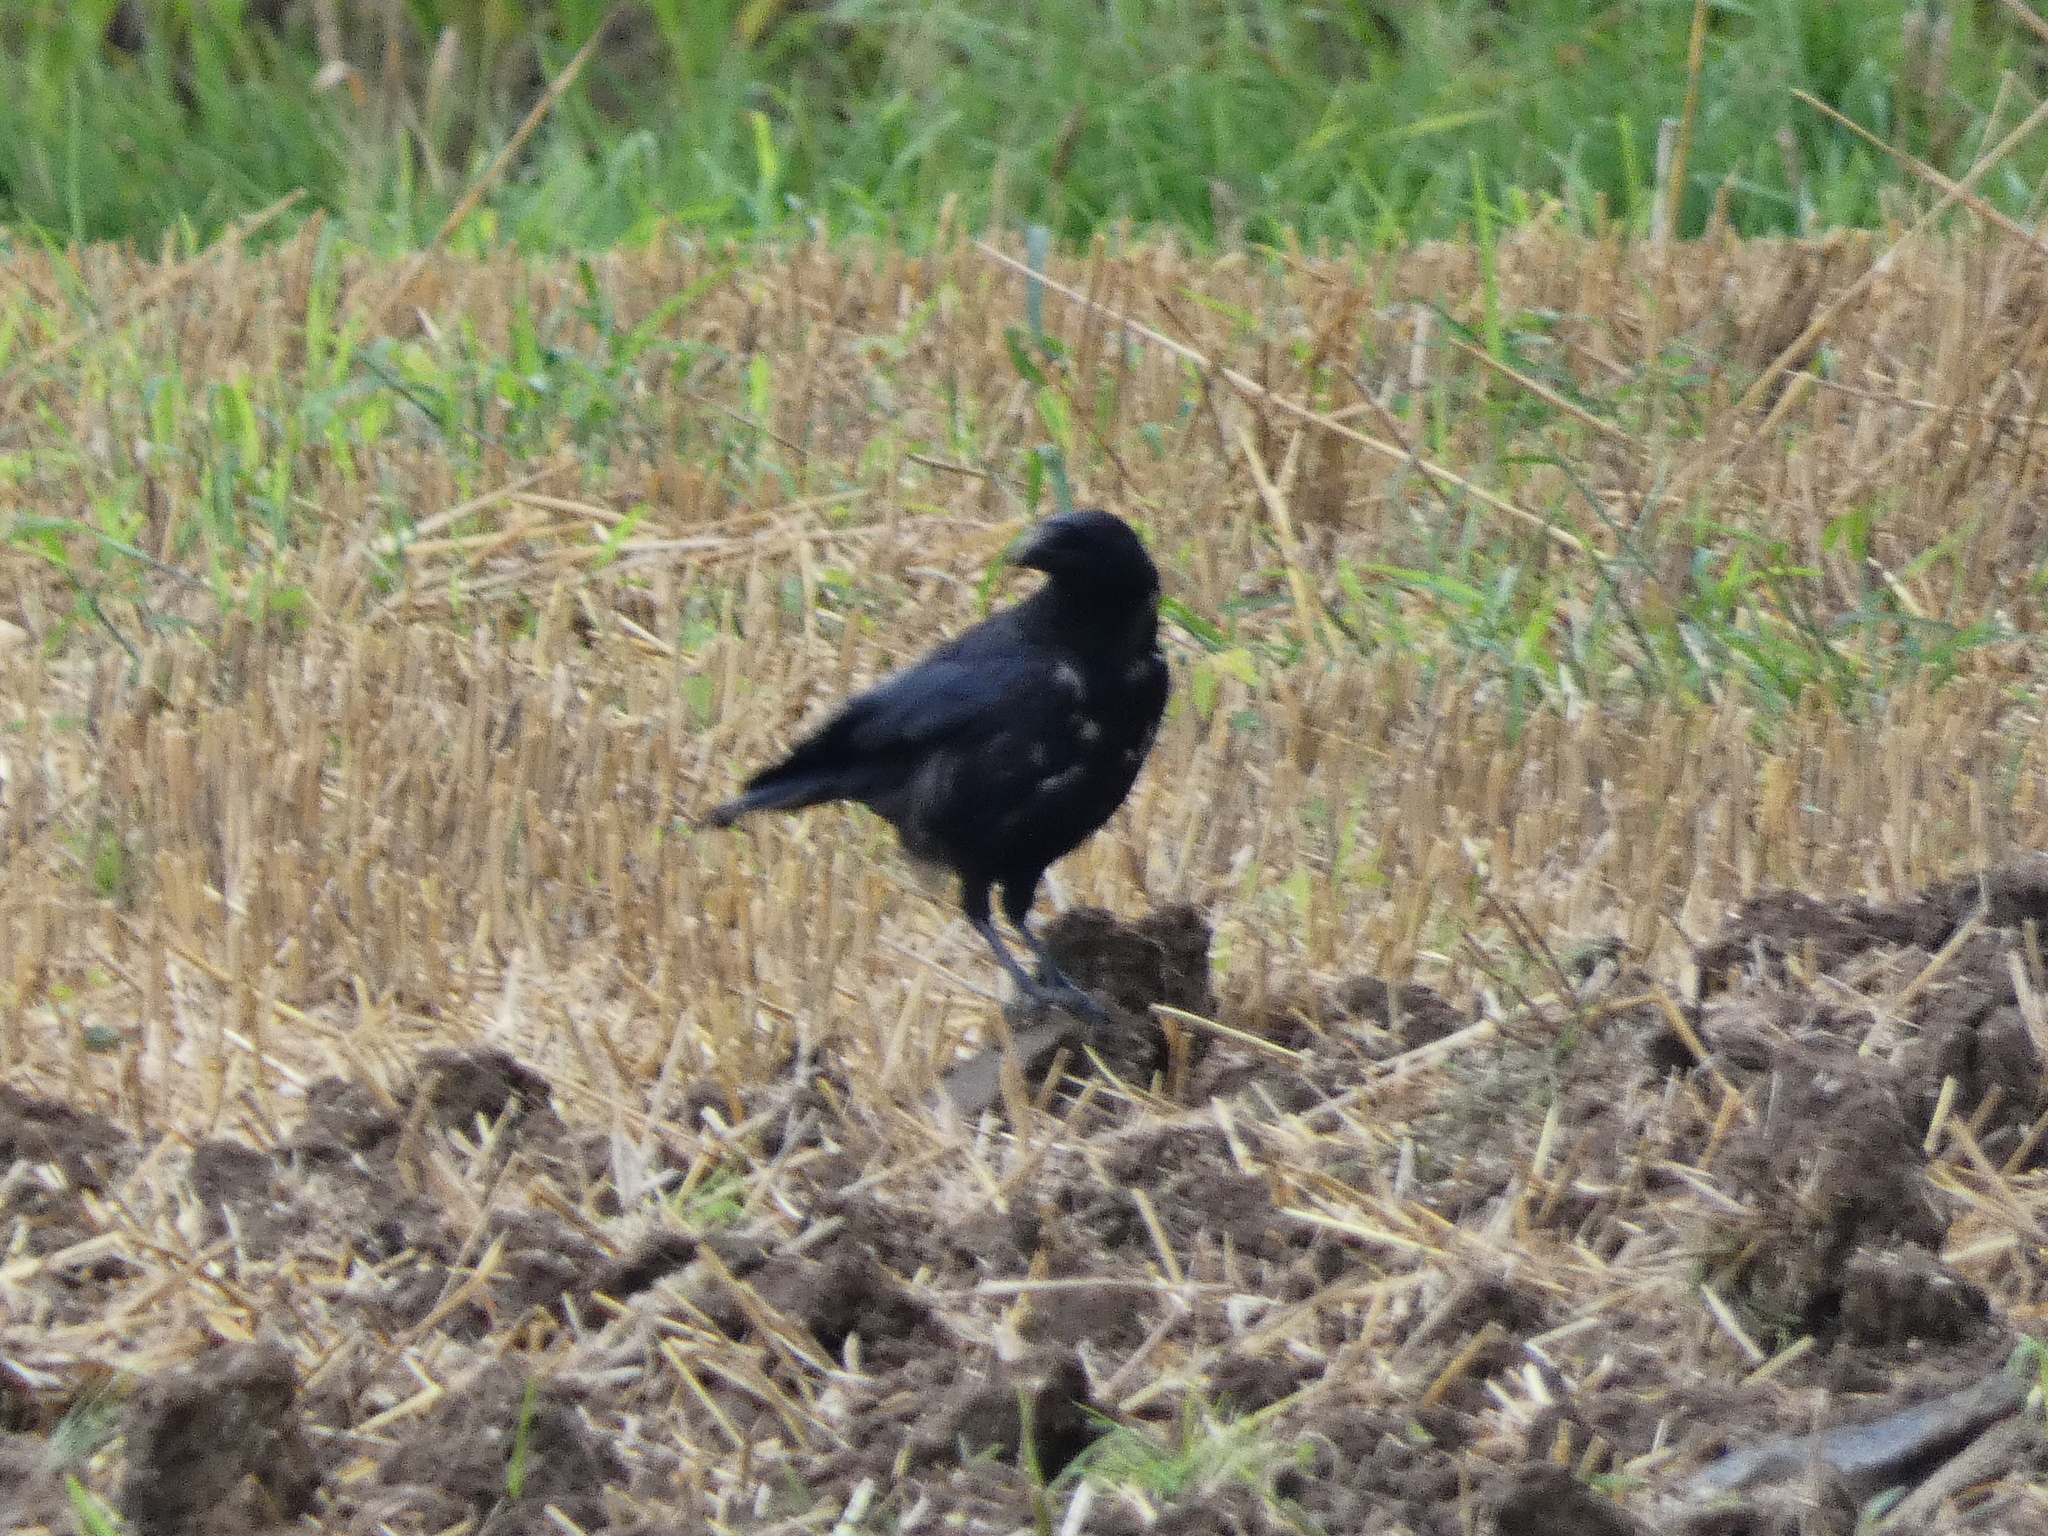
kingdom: Animalia
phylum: Chordata
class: Aves
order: Passeriformes
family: Corvidae
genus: Corvus
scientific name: Corvus
